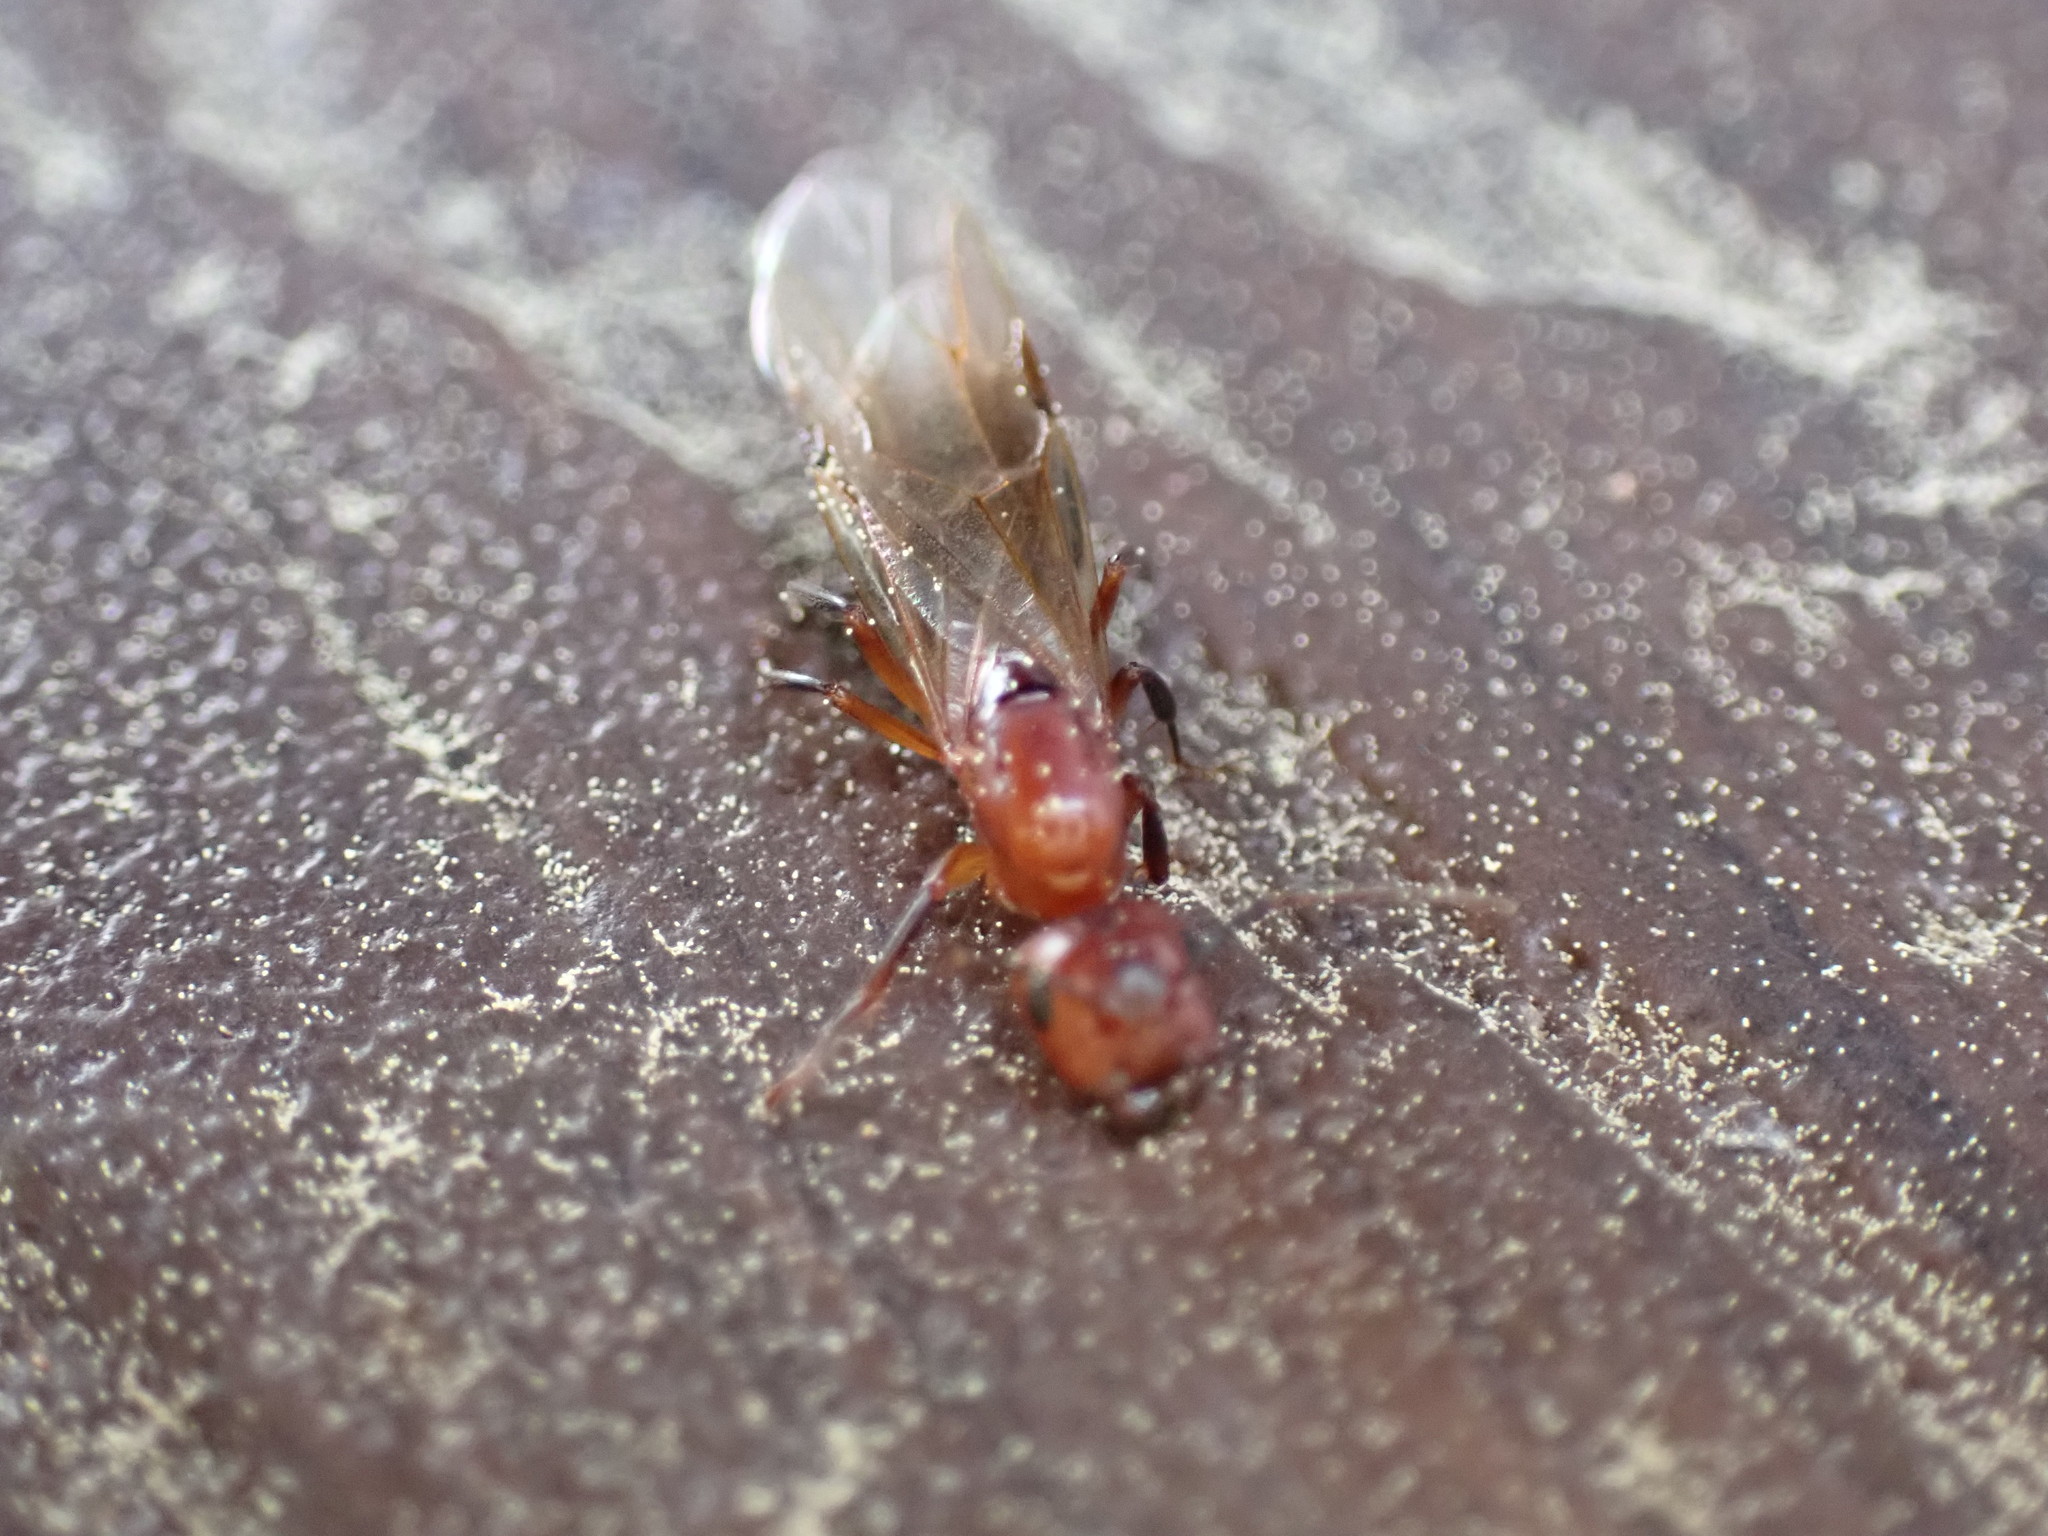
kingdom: Animalia
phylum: Arthropoda
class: Insecta
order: Hymenoptera
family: Formicidae
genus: Camponotus
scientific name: Camponotus decipiens
